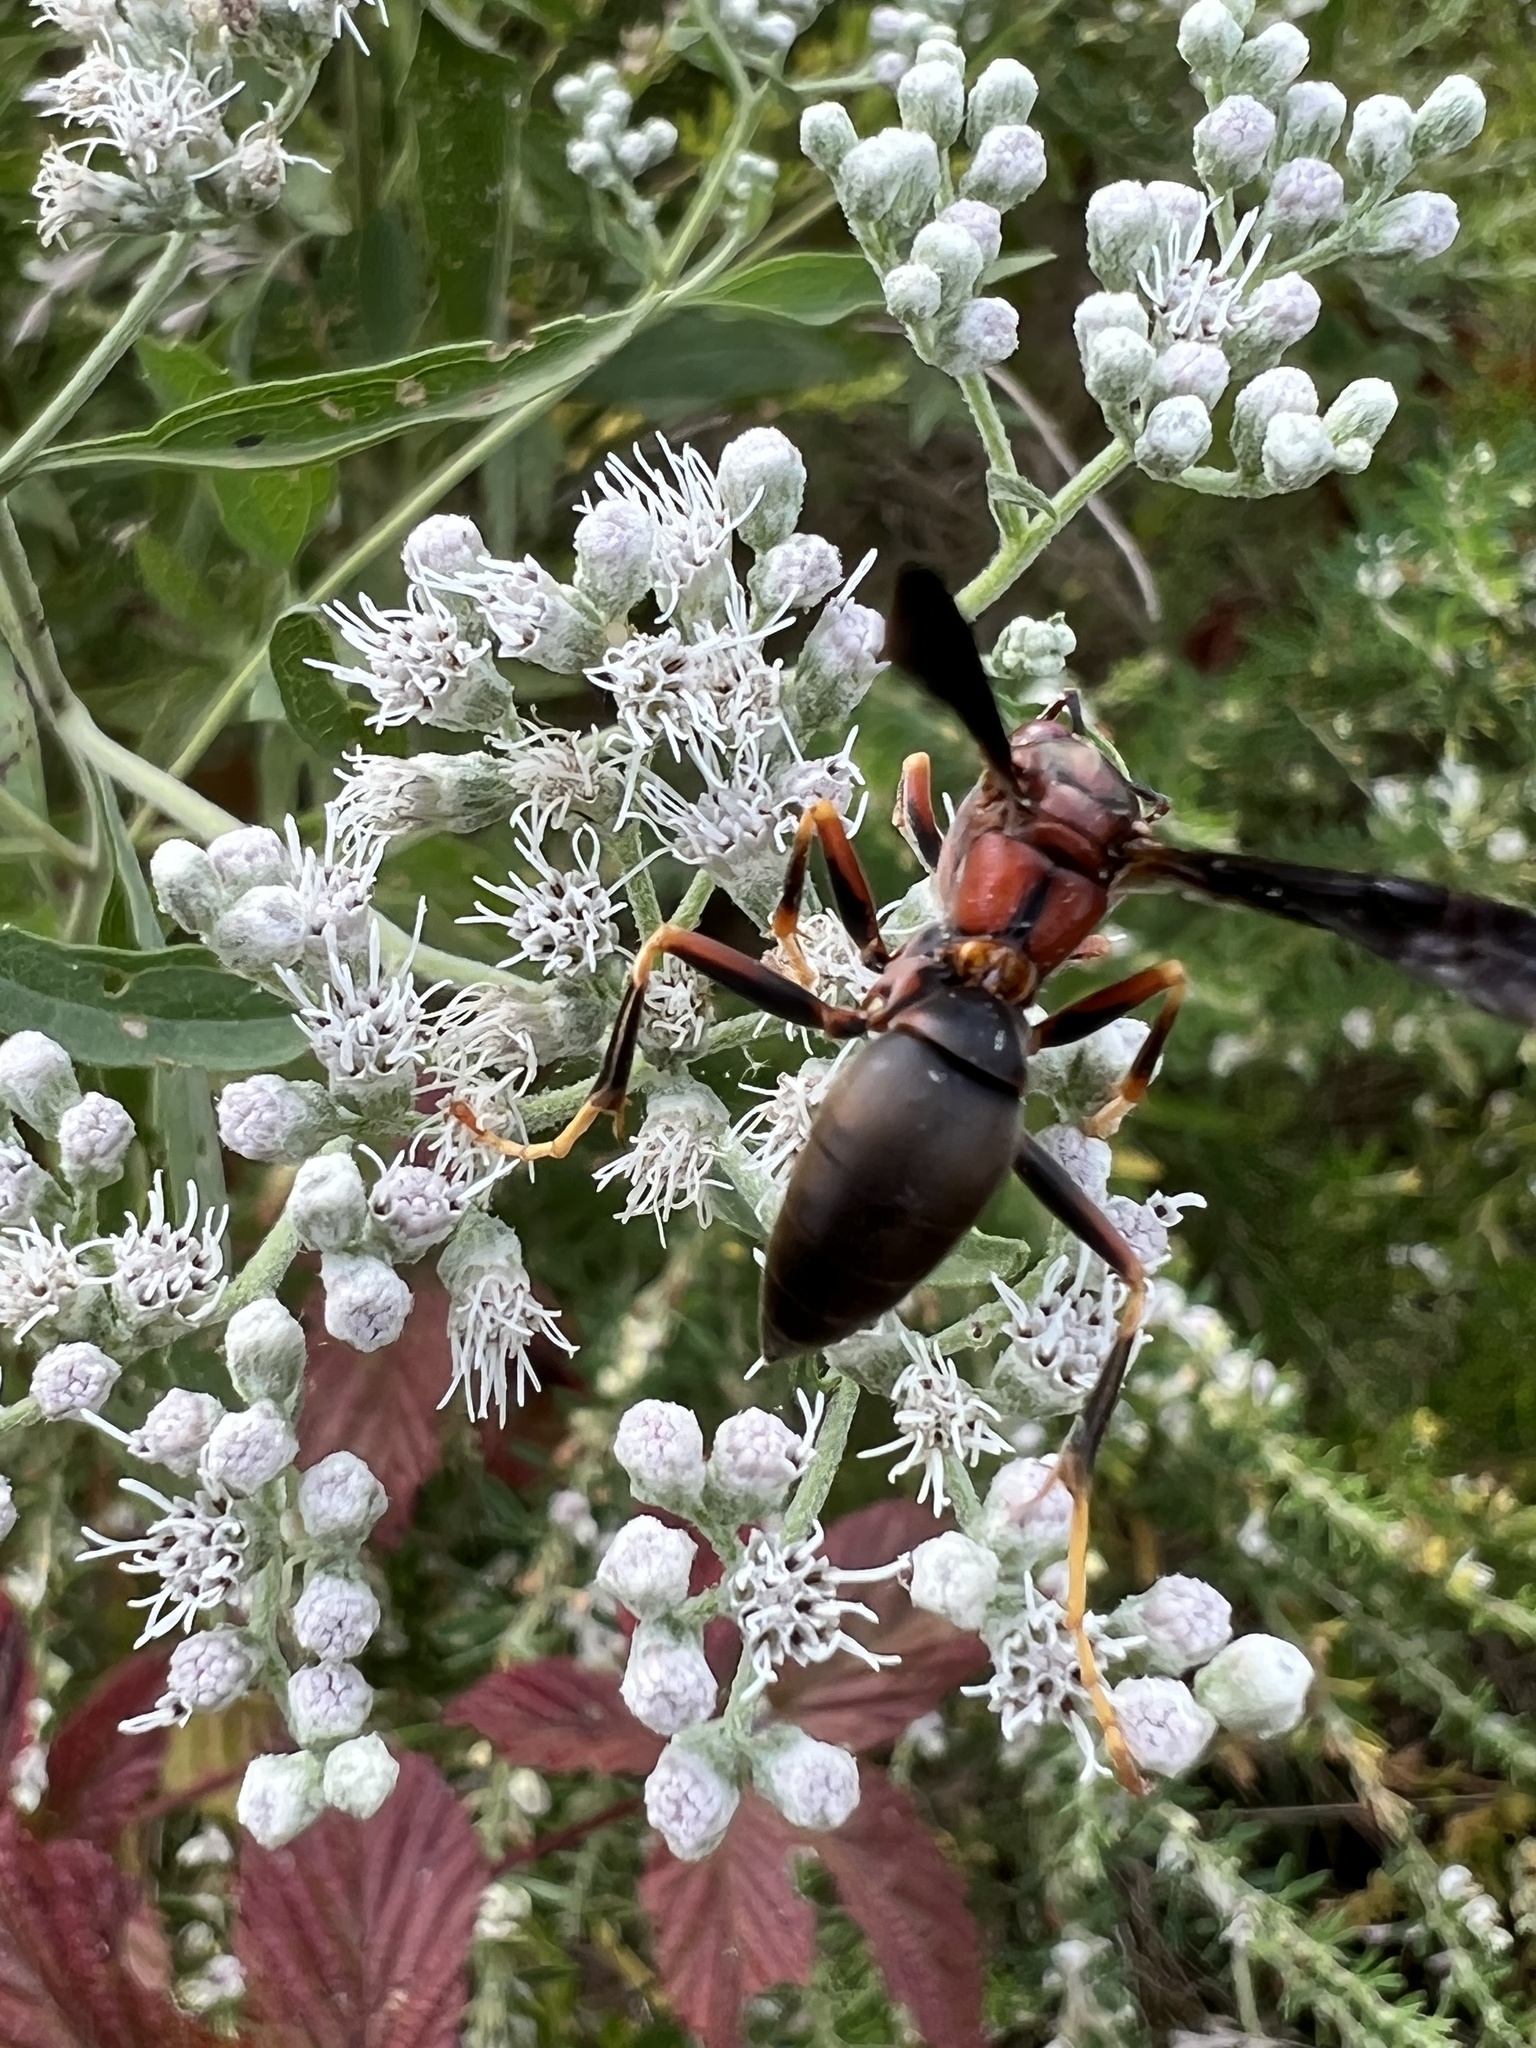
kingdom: Animalia
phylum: Arthropoda
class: Insecta
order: Hymenoptera
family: Eumenidae
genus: Polistes
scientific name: Polistes metricus
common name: Metric paper wasp
